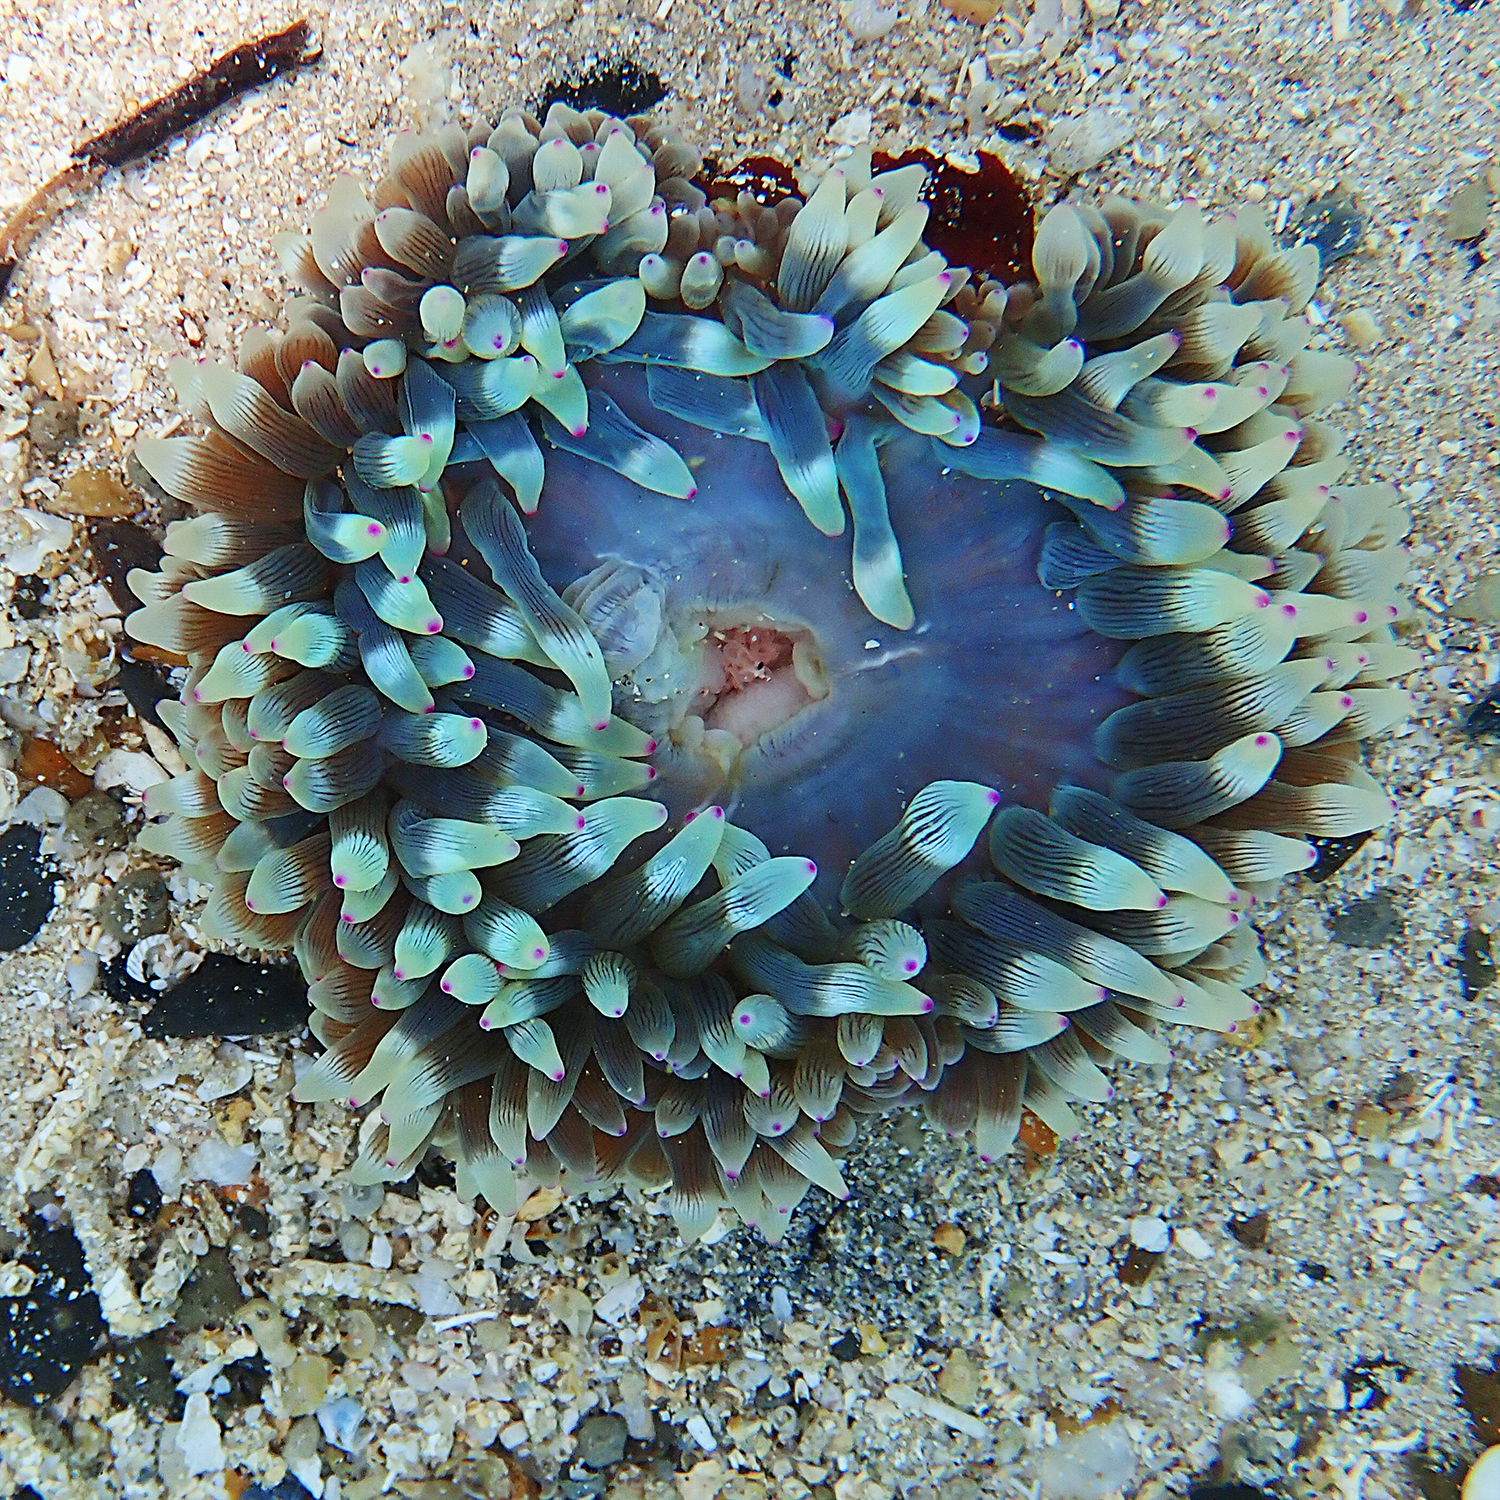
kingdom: Animalia
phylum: Cnidaria
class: Anthozoa
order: Actiniaria
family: Actiniidae
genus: Entacmaea
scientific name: Entacmaea quadricolor
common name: Bulb tentacle sea anemone
